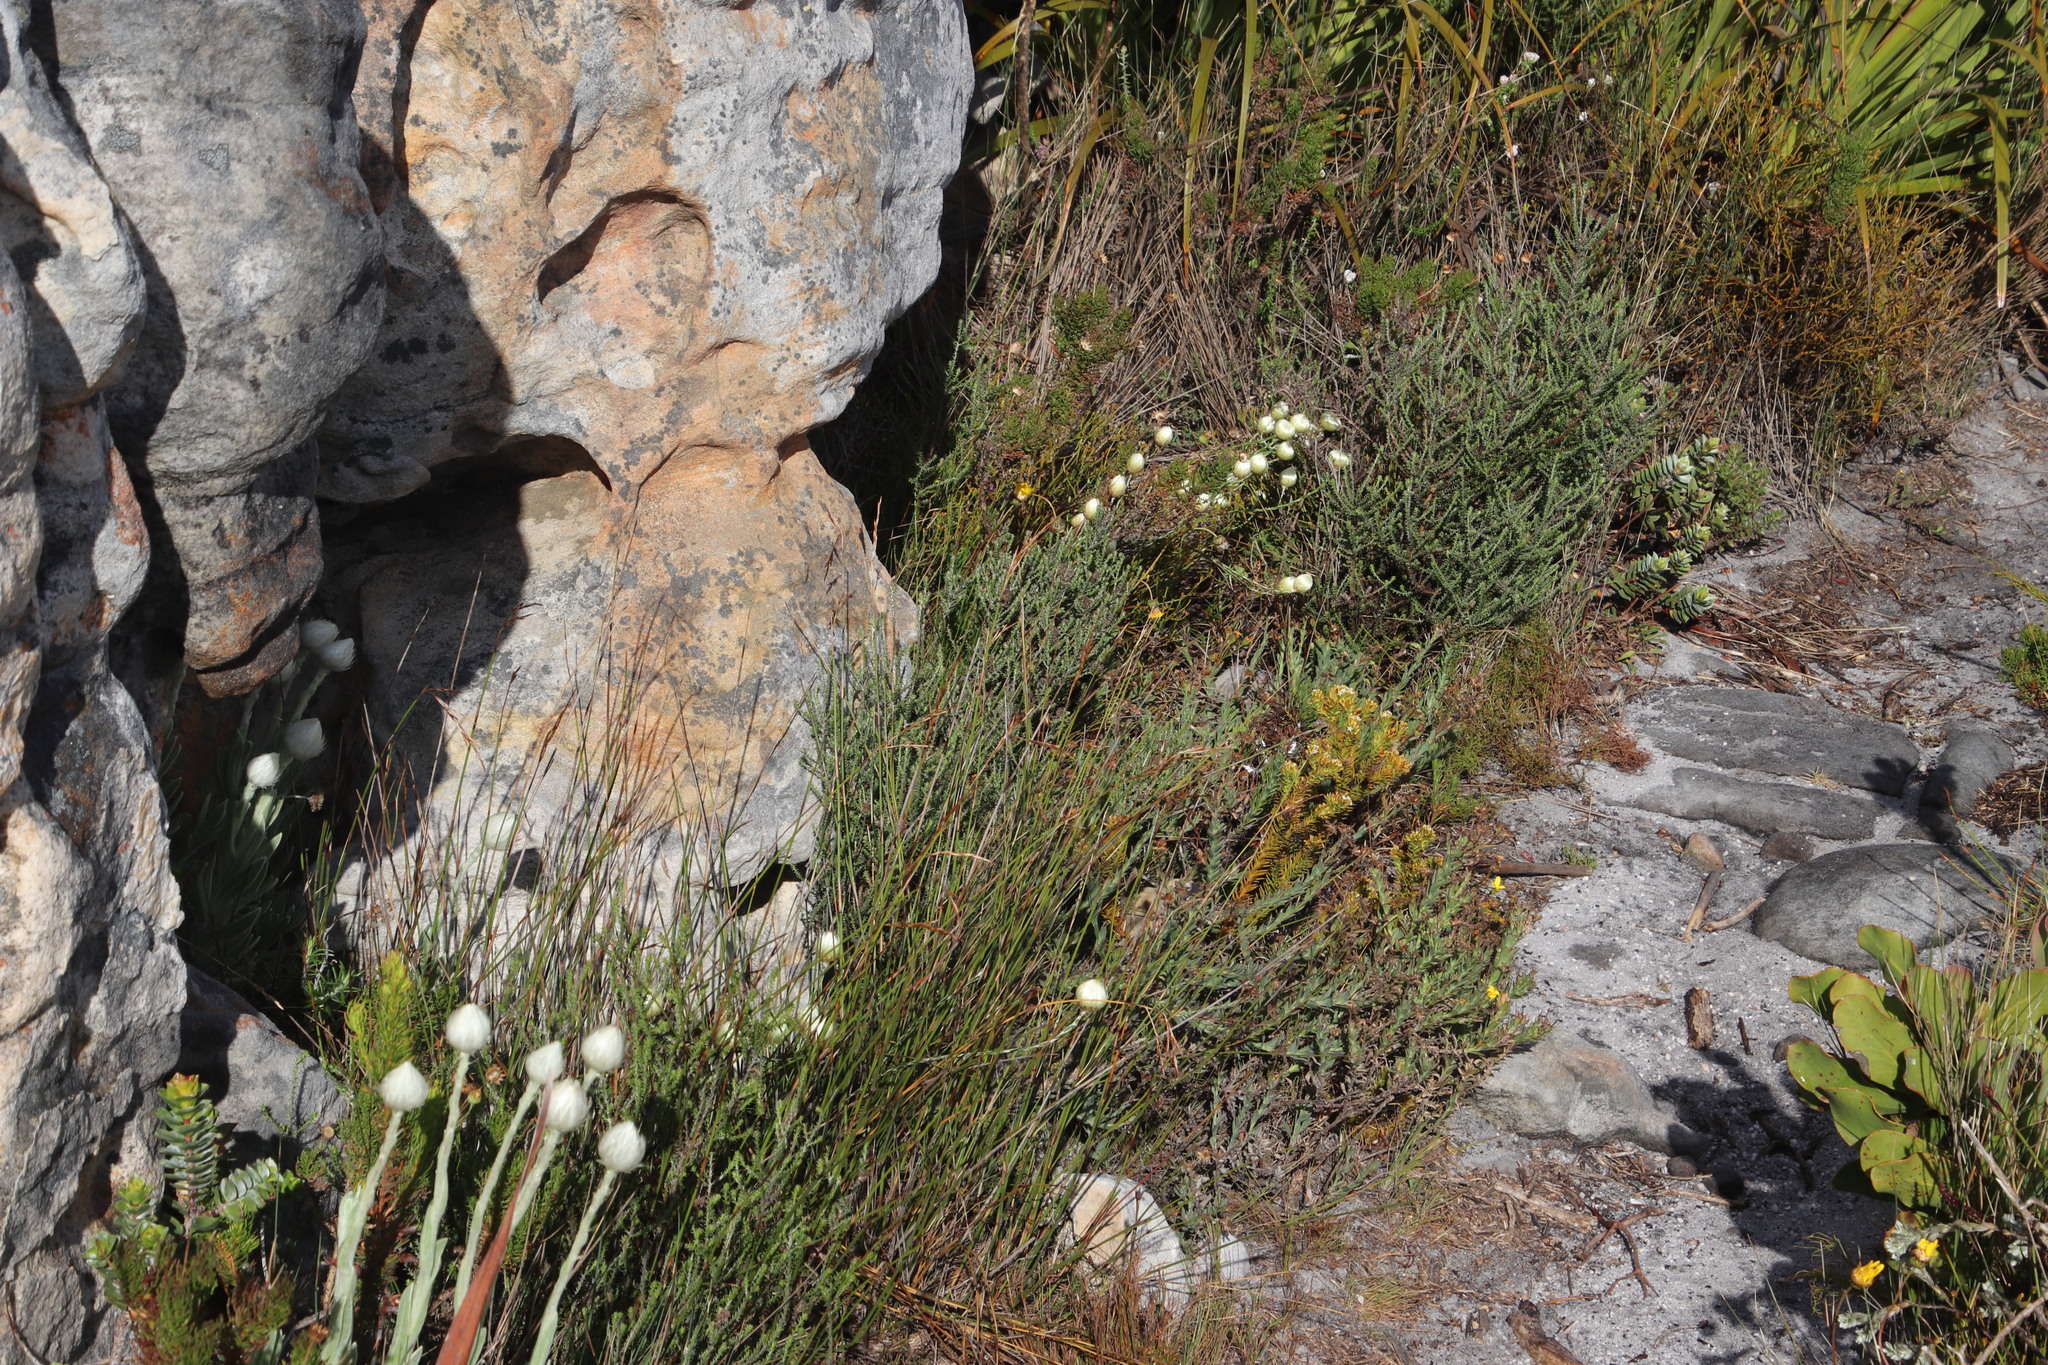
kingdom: Plantae
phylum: Tracheophyta
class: Magnoliopsida
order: Asterales
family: Asteraceae
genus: Edmondia
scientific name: Edmondia sesamoides
